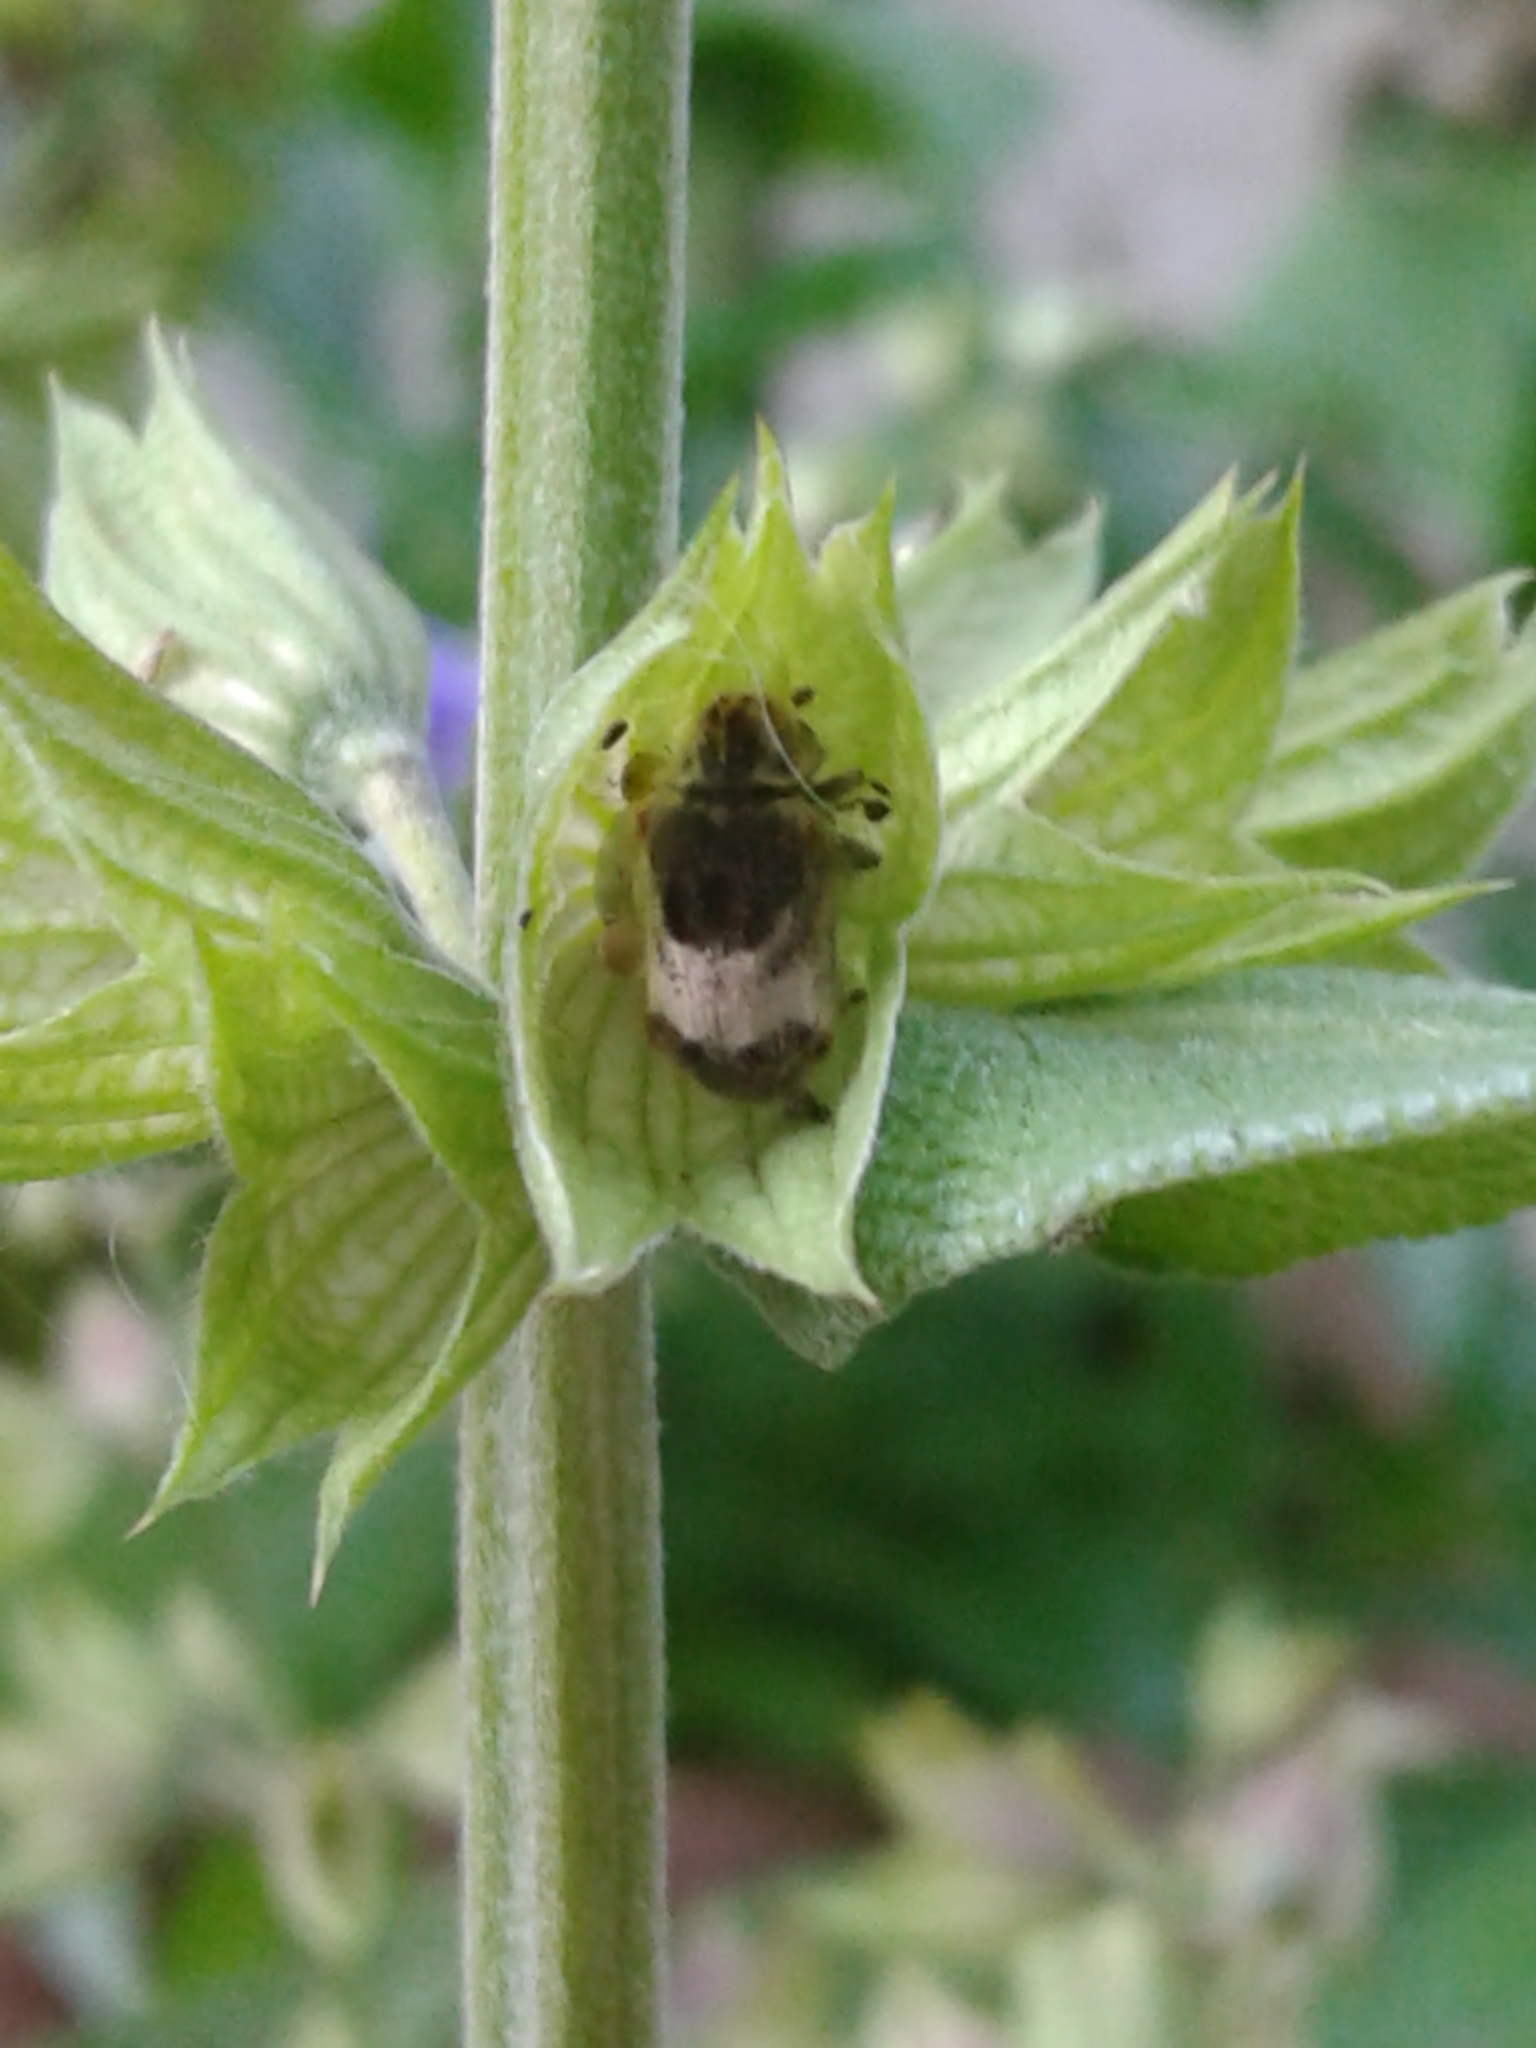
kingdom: Animalia
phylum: Arthropoda
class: Insecta
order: Coleoptera
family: Anobiidae
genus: Trichodesma
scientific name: Trichodesma gibbosa
